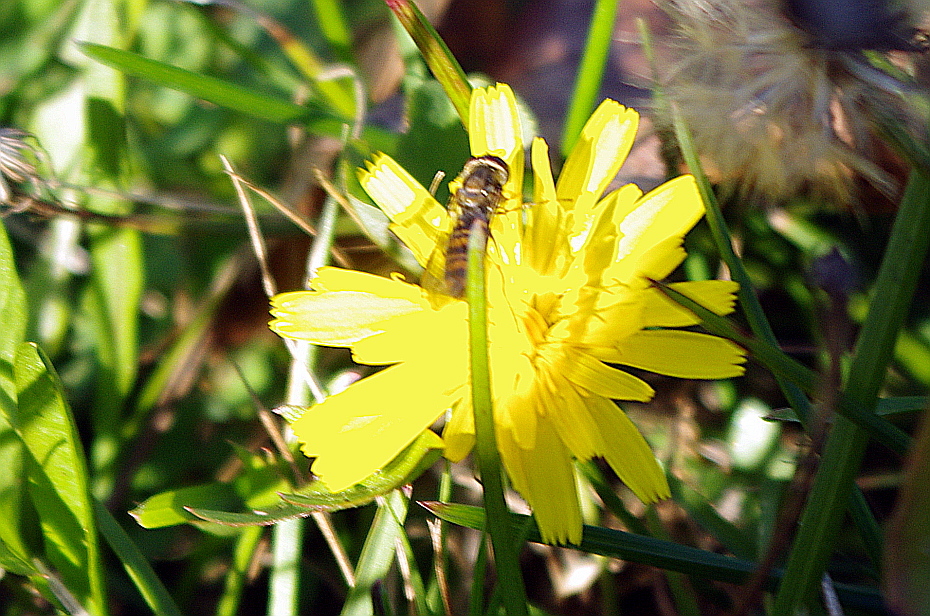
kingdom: Animalia
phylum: Arthropoda
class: Insecta
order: Diptera
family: Syrphidae
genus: Episyrphus
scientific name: Episyrphus balteatus
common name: Marmalade hoverfly
